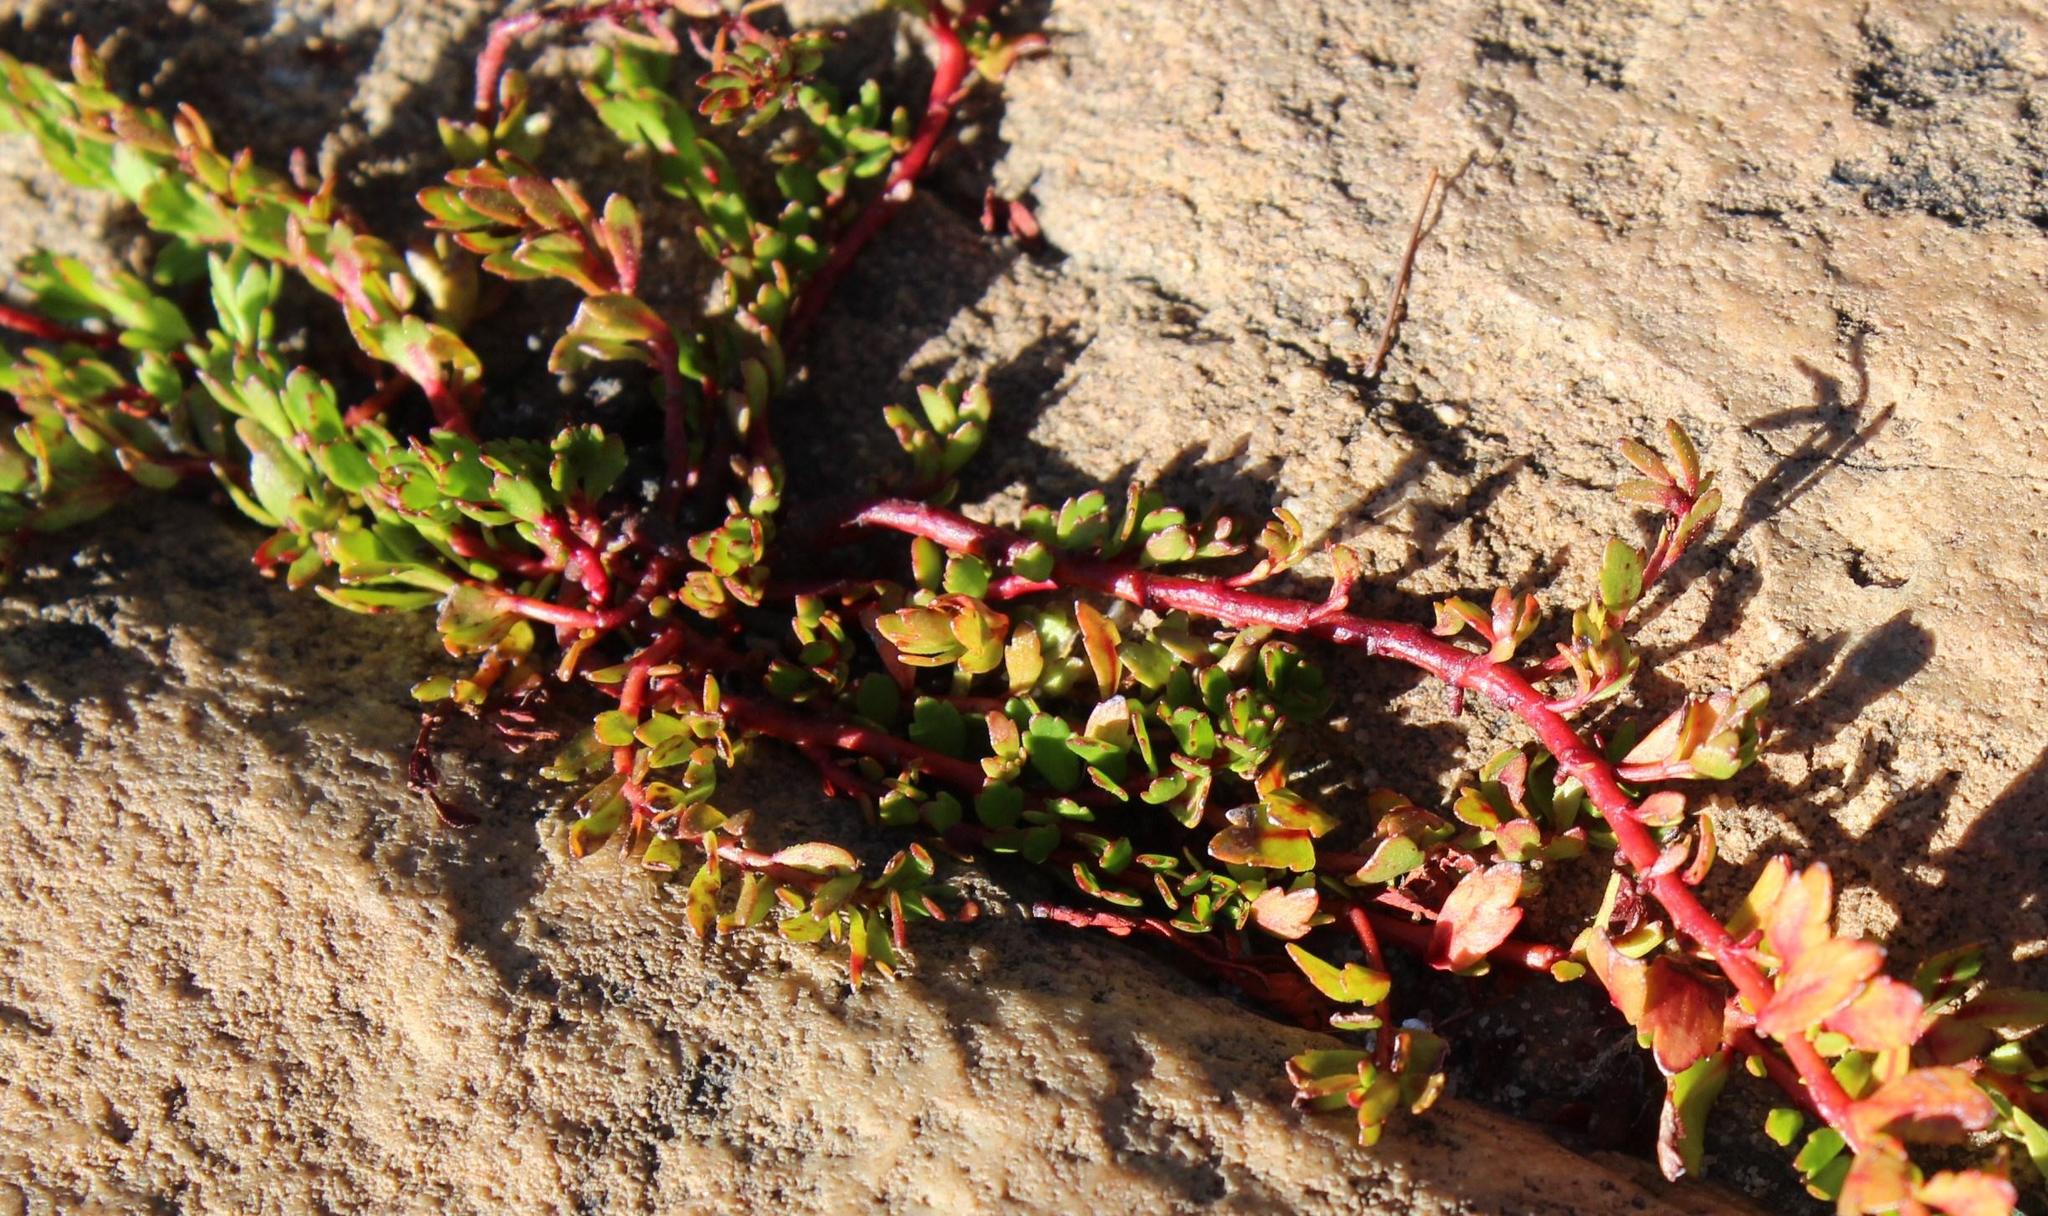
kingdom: Plantae
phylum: Tracheophyta
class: Magnoliopsida
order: Saxifragales
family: Haloragaceae
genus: Laurembergia
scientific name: Laurembergia repens
